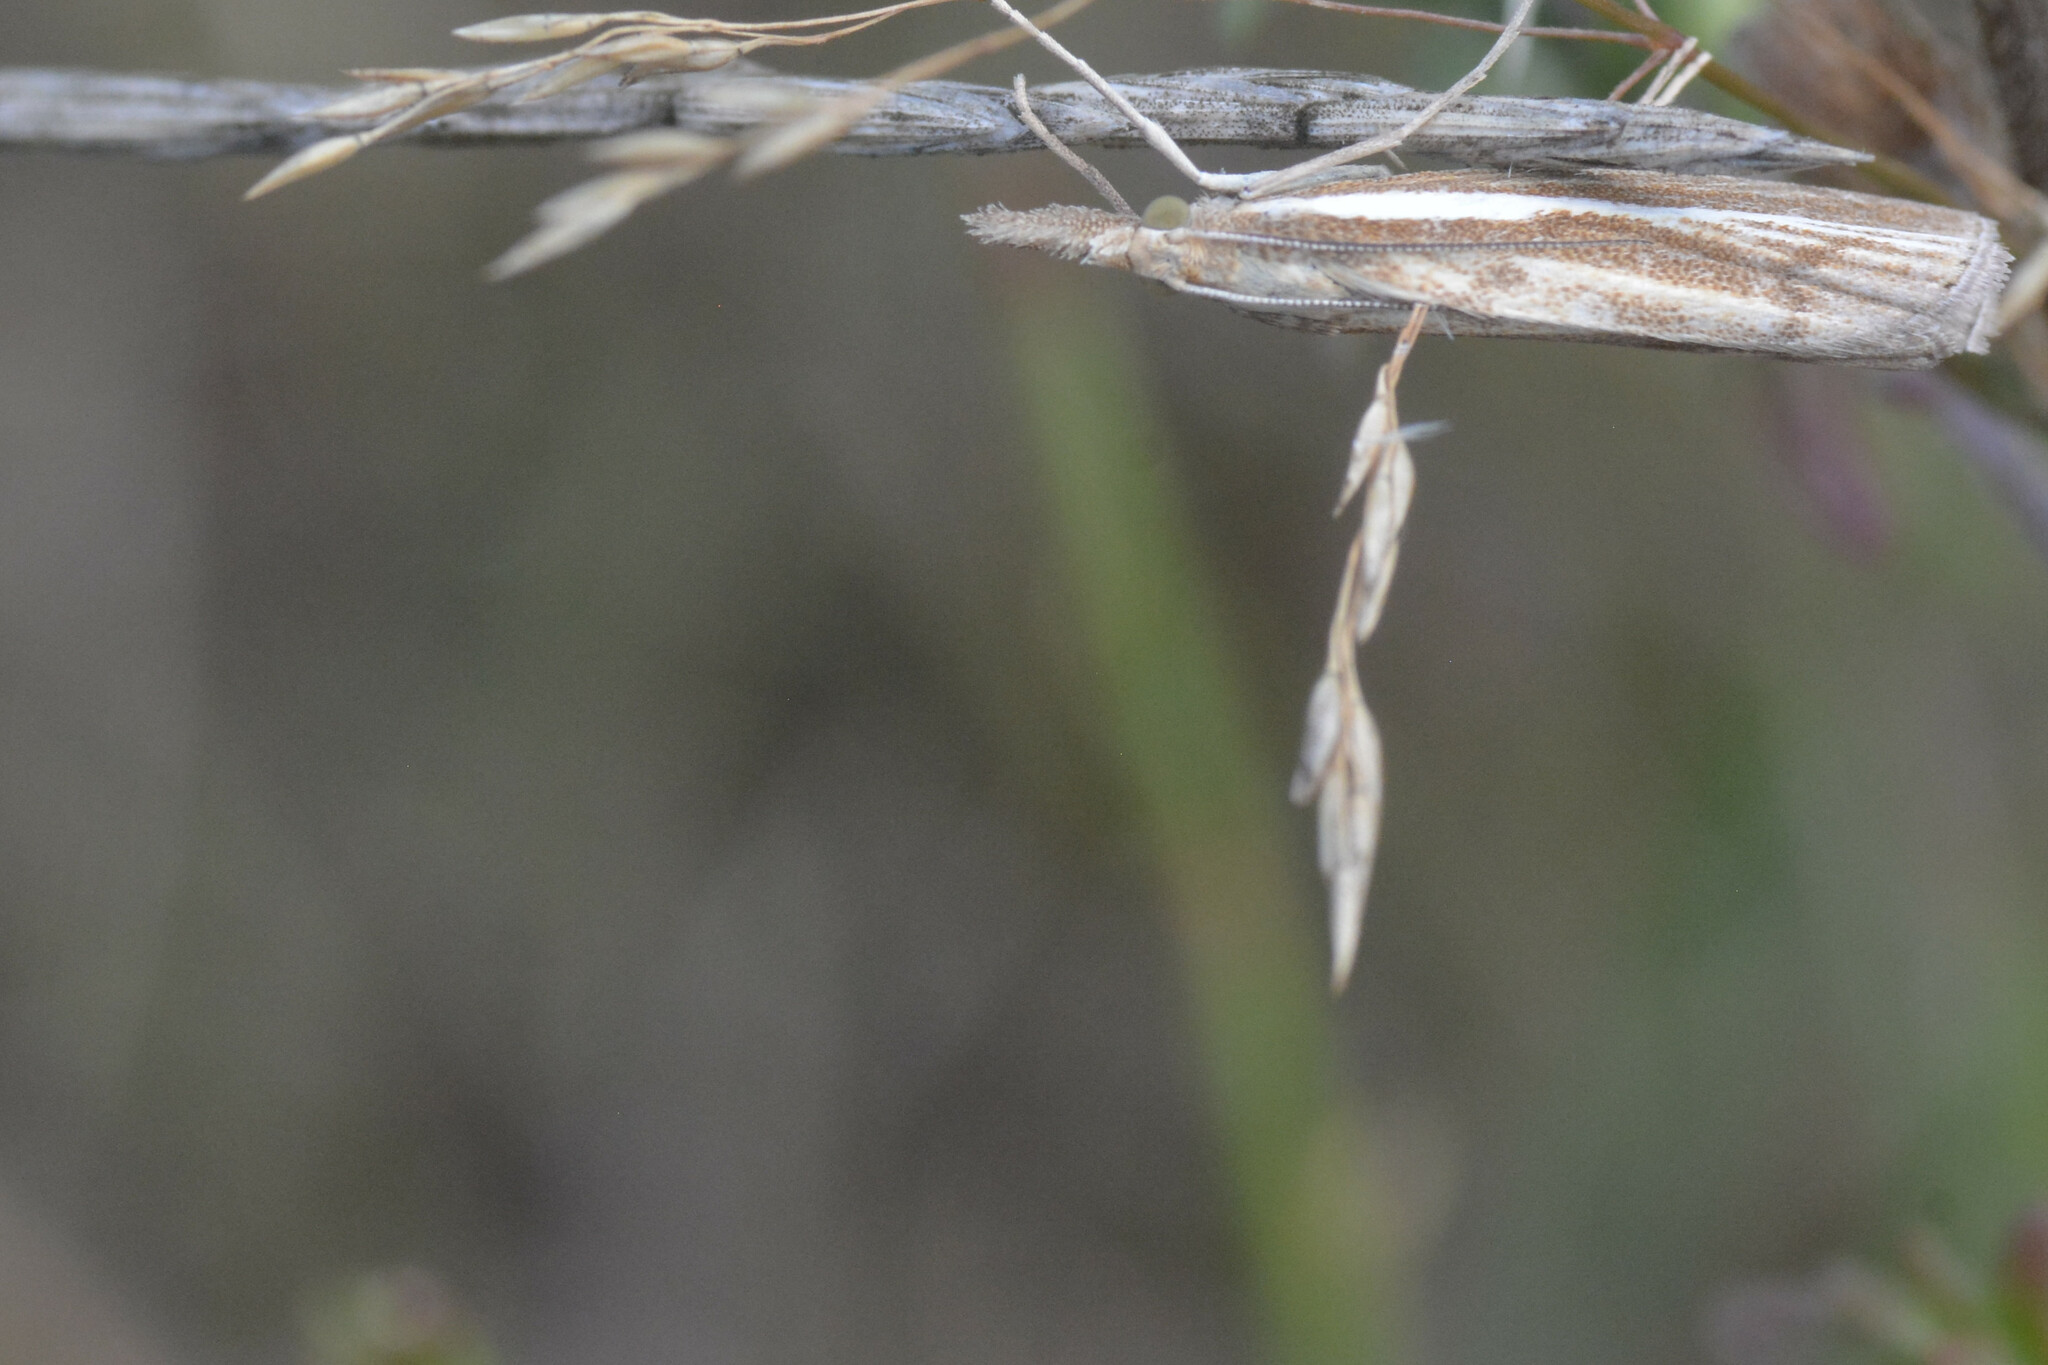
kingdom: Animalia
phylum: Arthropoda
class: Insecta
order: Lepidoptera
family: Crambidae
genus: Agriphila
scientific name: Agriphila tristellus
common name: Common grass-veneer
